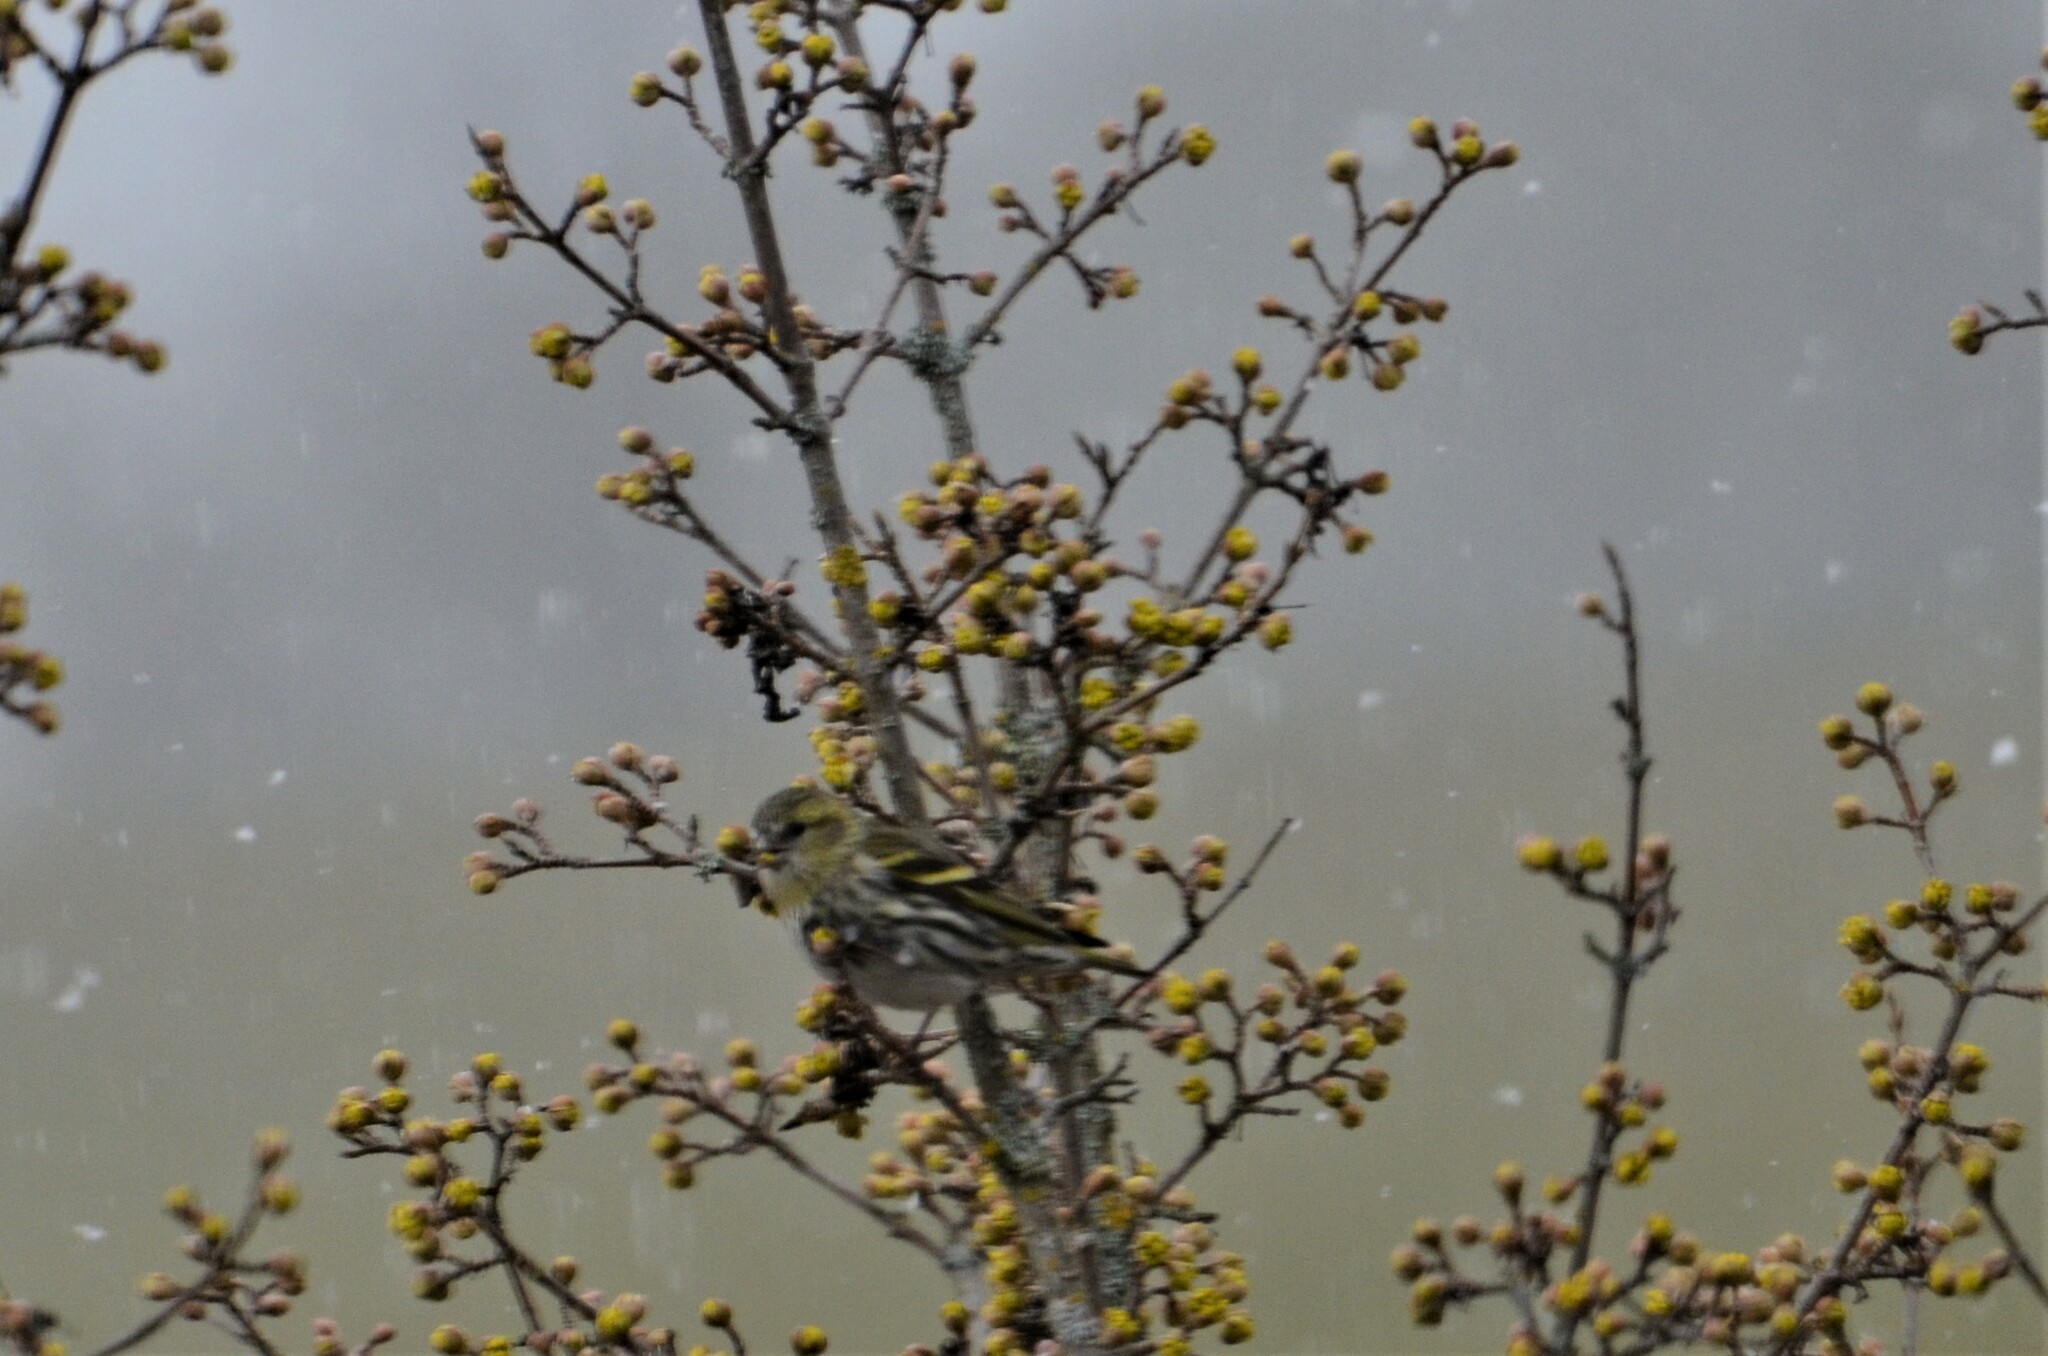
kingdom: Animalia
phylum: Chordata
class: Aves
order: Passeriformes
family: Fringillidae
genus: Spinus
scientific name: Spinus spinus
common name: Eurasian siskin
